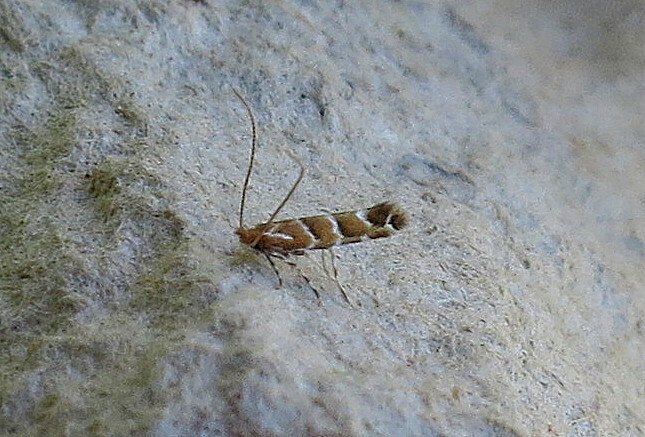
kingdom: Animalia
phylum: Arthropoda
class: Insecta
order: Lepidoptera
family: Gracillariidae
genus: Cameraria
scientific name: Cameraria ohridella
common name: Horse-chestnut leaf-miner
